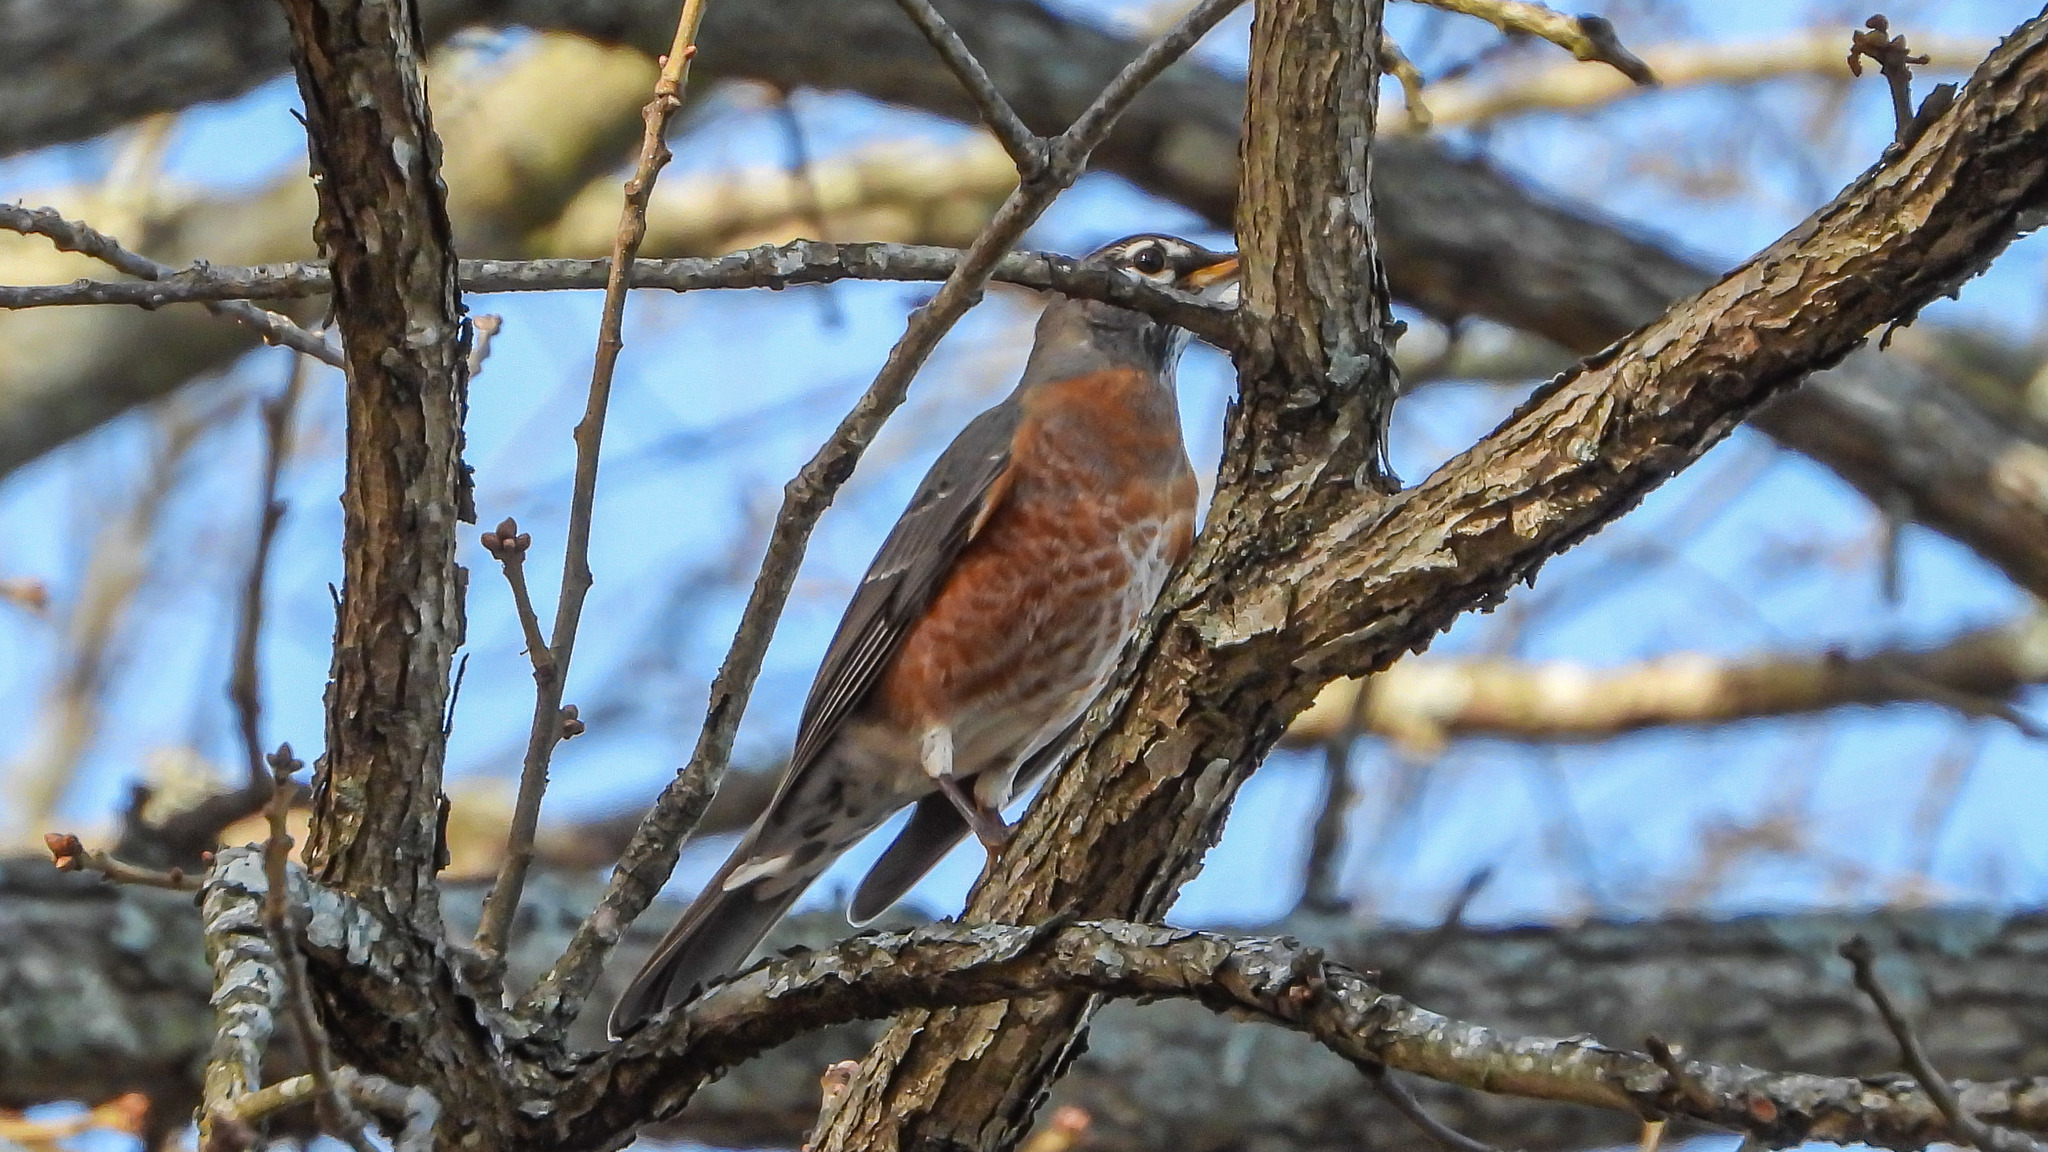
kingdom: Animalia
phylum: Chordata
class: Aves
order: Passeriformes
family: Turdidae
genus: Turdus
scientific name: Turdus migratorius
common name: American robin
